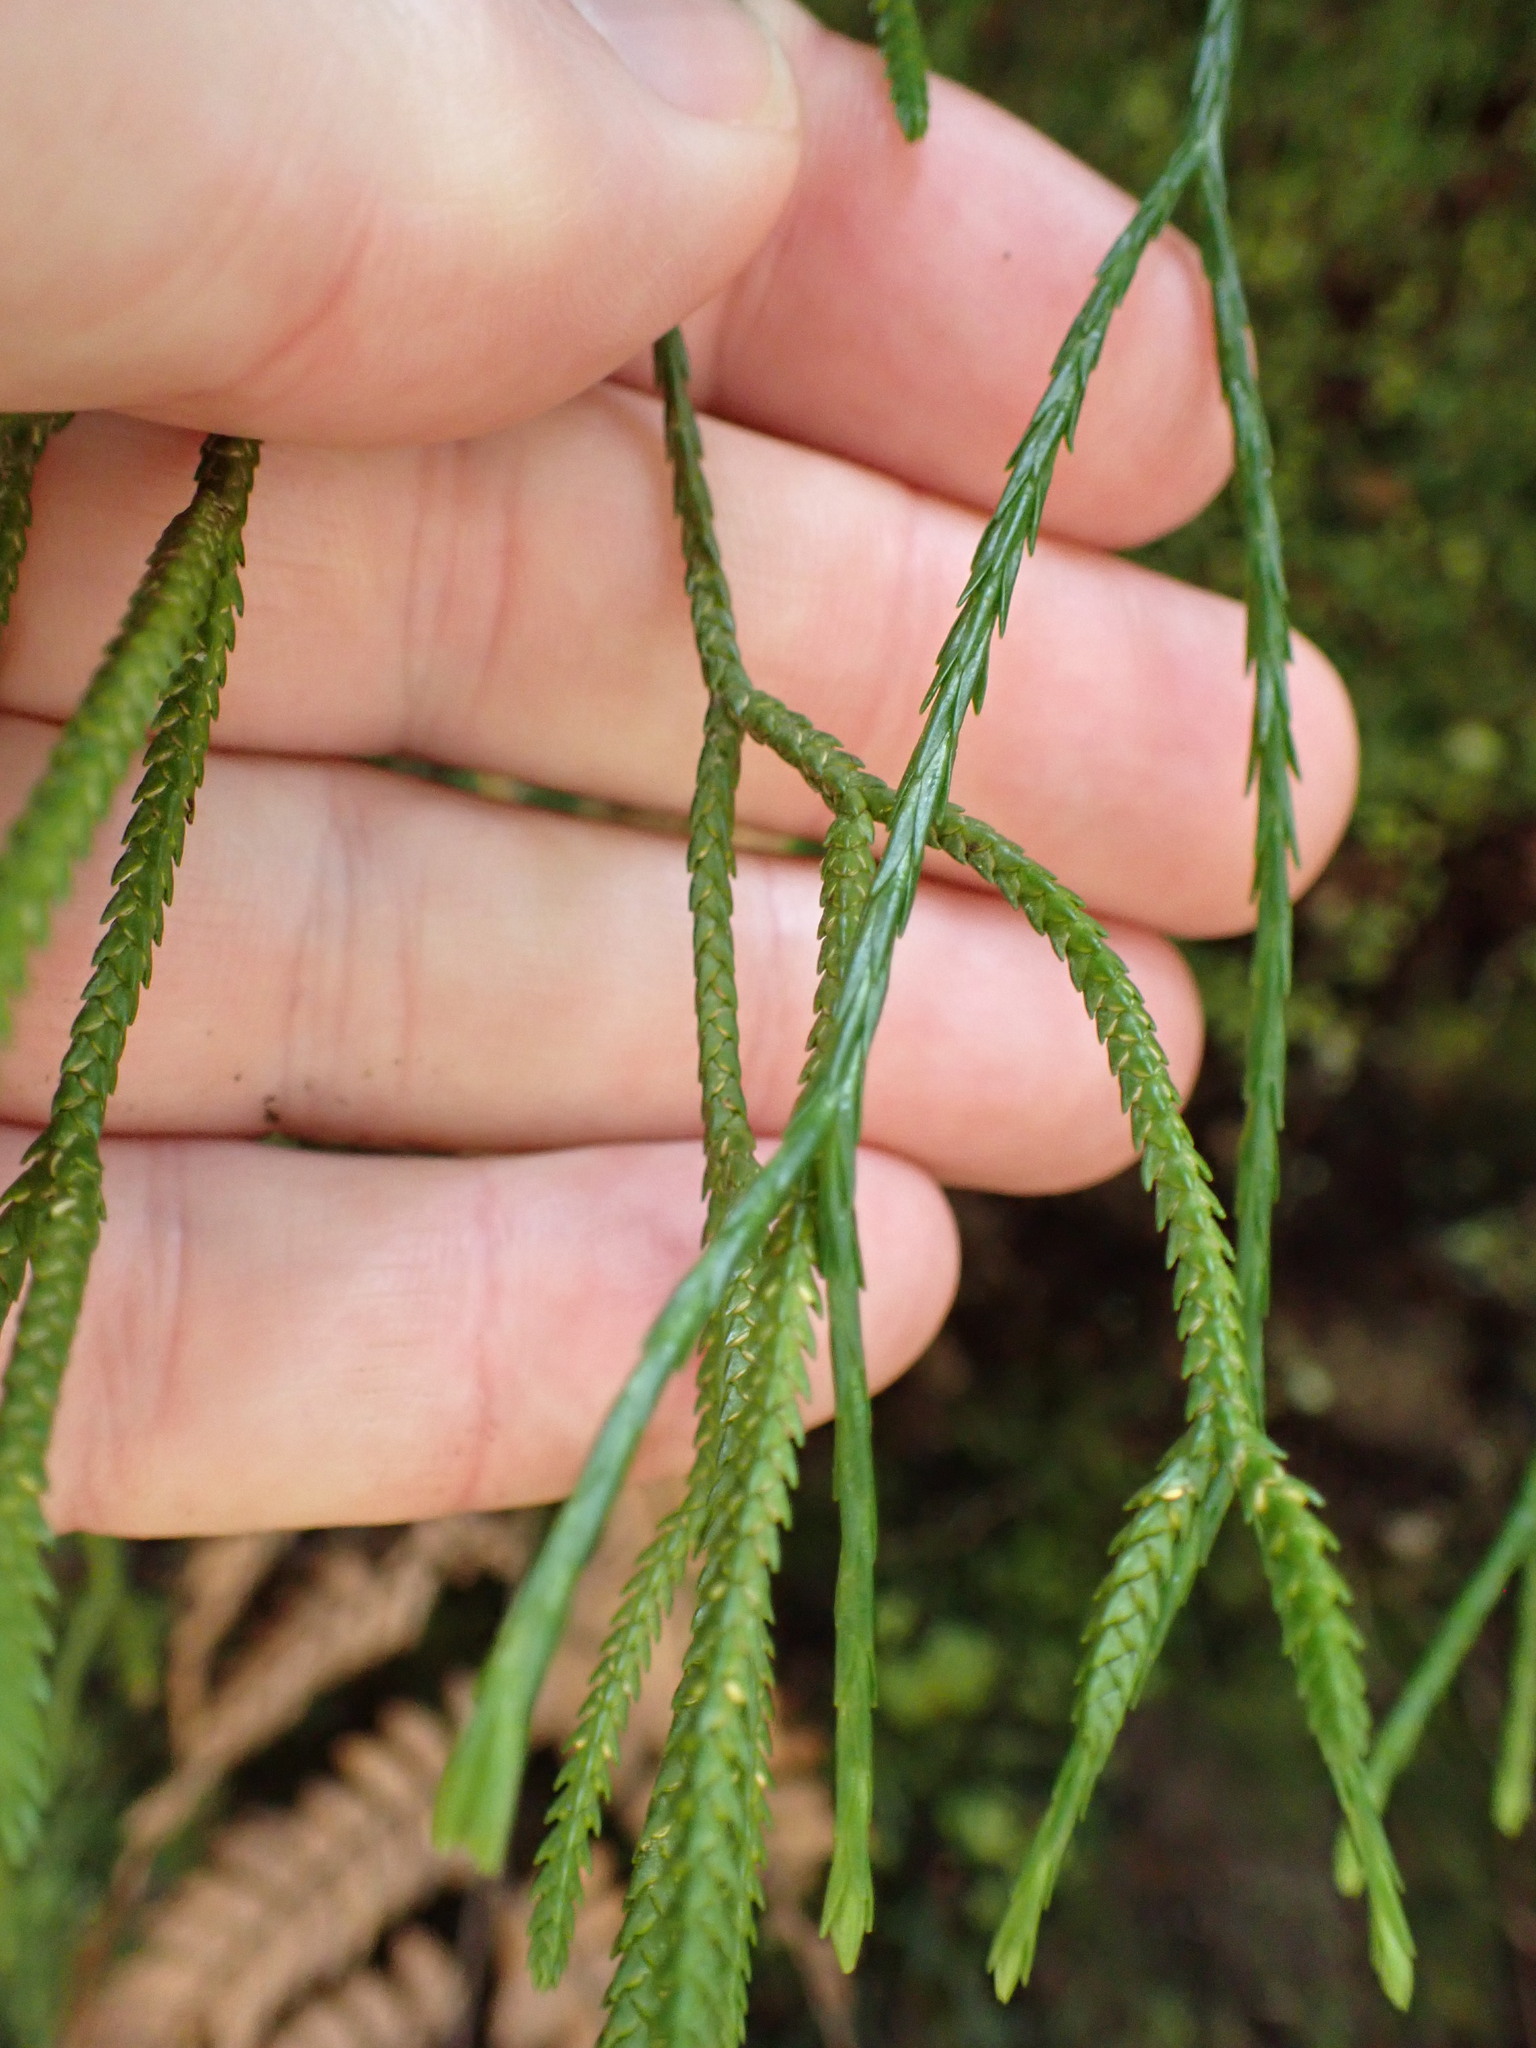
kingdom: Plantae
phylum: Tracheophyta
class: Lycopodiopsida
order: Lycopodiales
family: Lycopodiaceae
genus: Phlegmariurus
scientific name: Phlegmariurus billardierei
